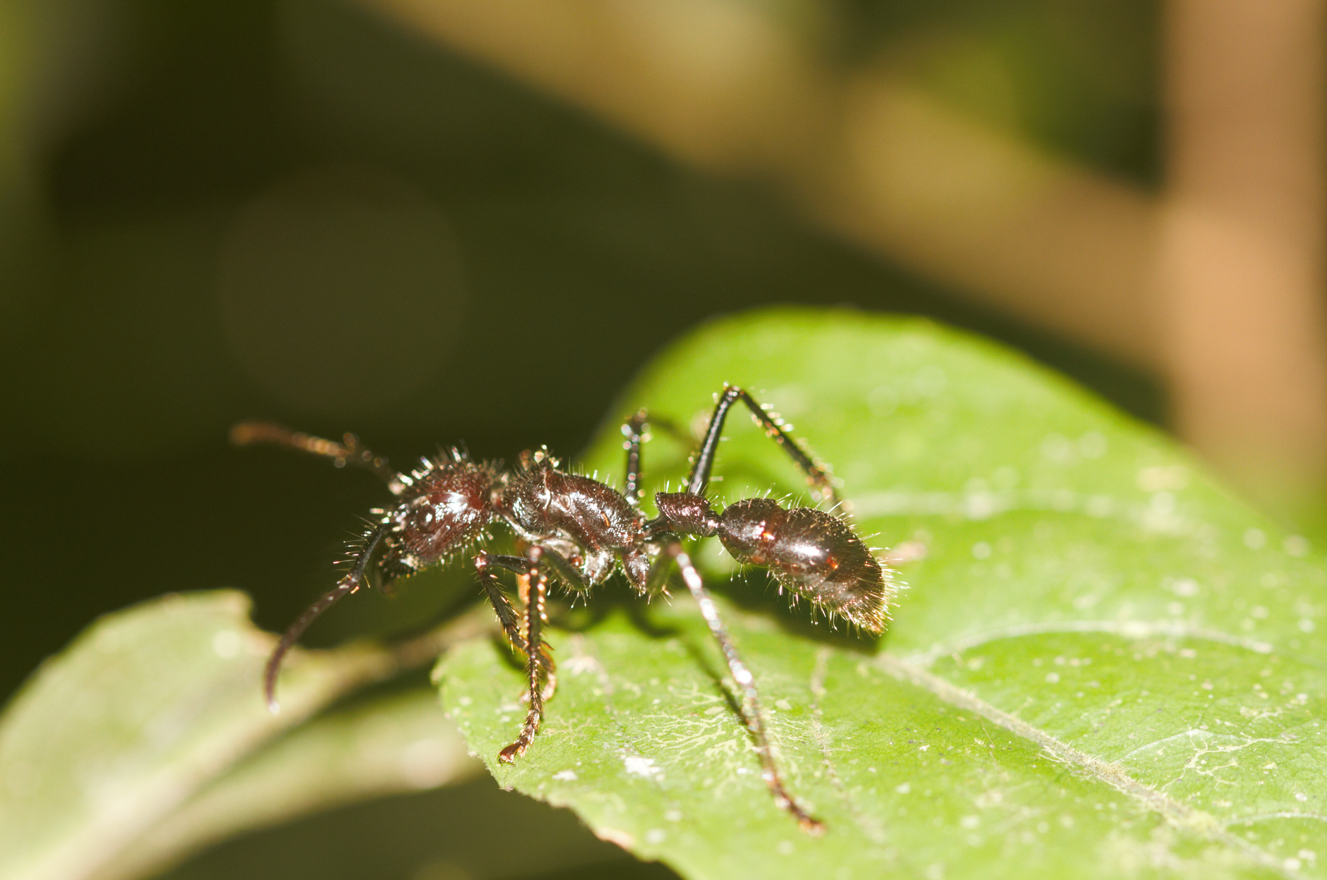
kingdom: Animalia
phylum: Arthropoda
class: Insecta
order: Hymenoptera
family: Formicidae
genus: Paraponera
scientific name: Paraponera clavata
